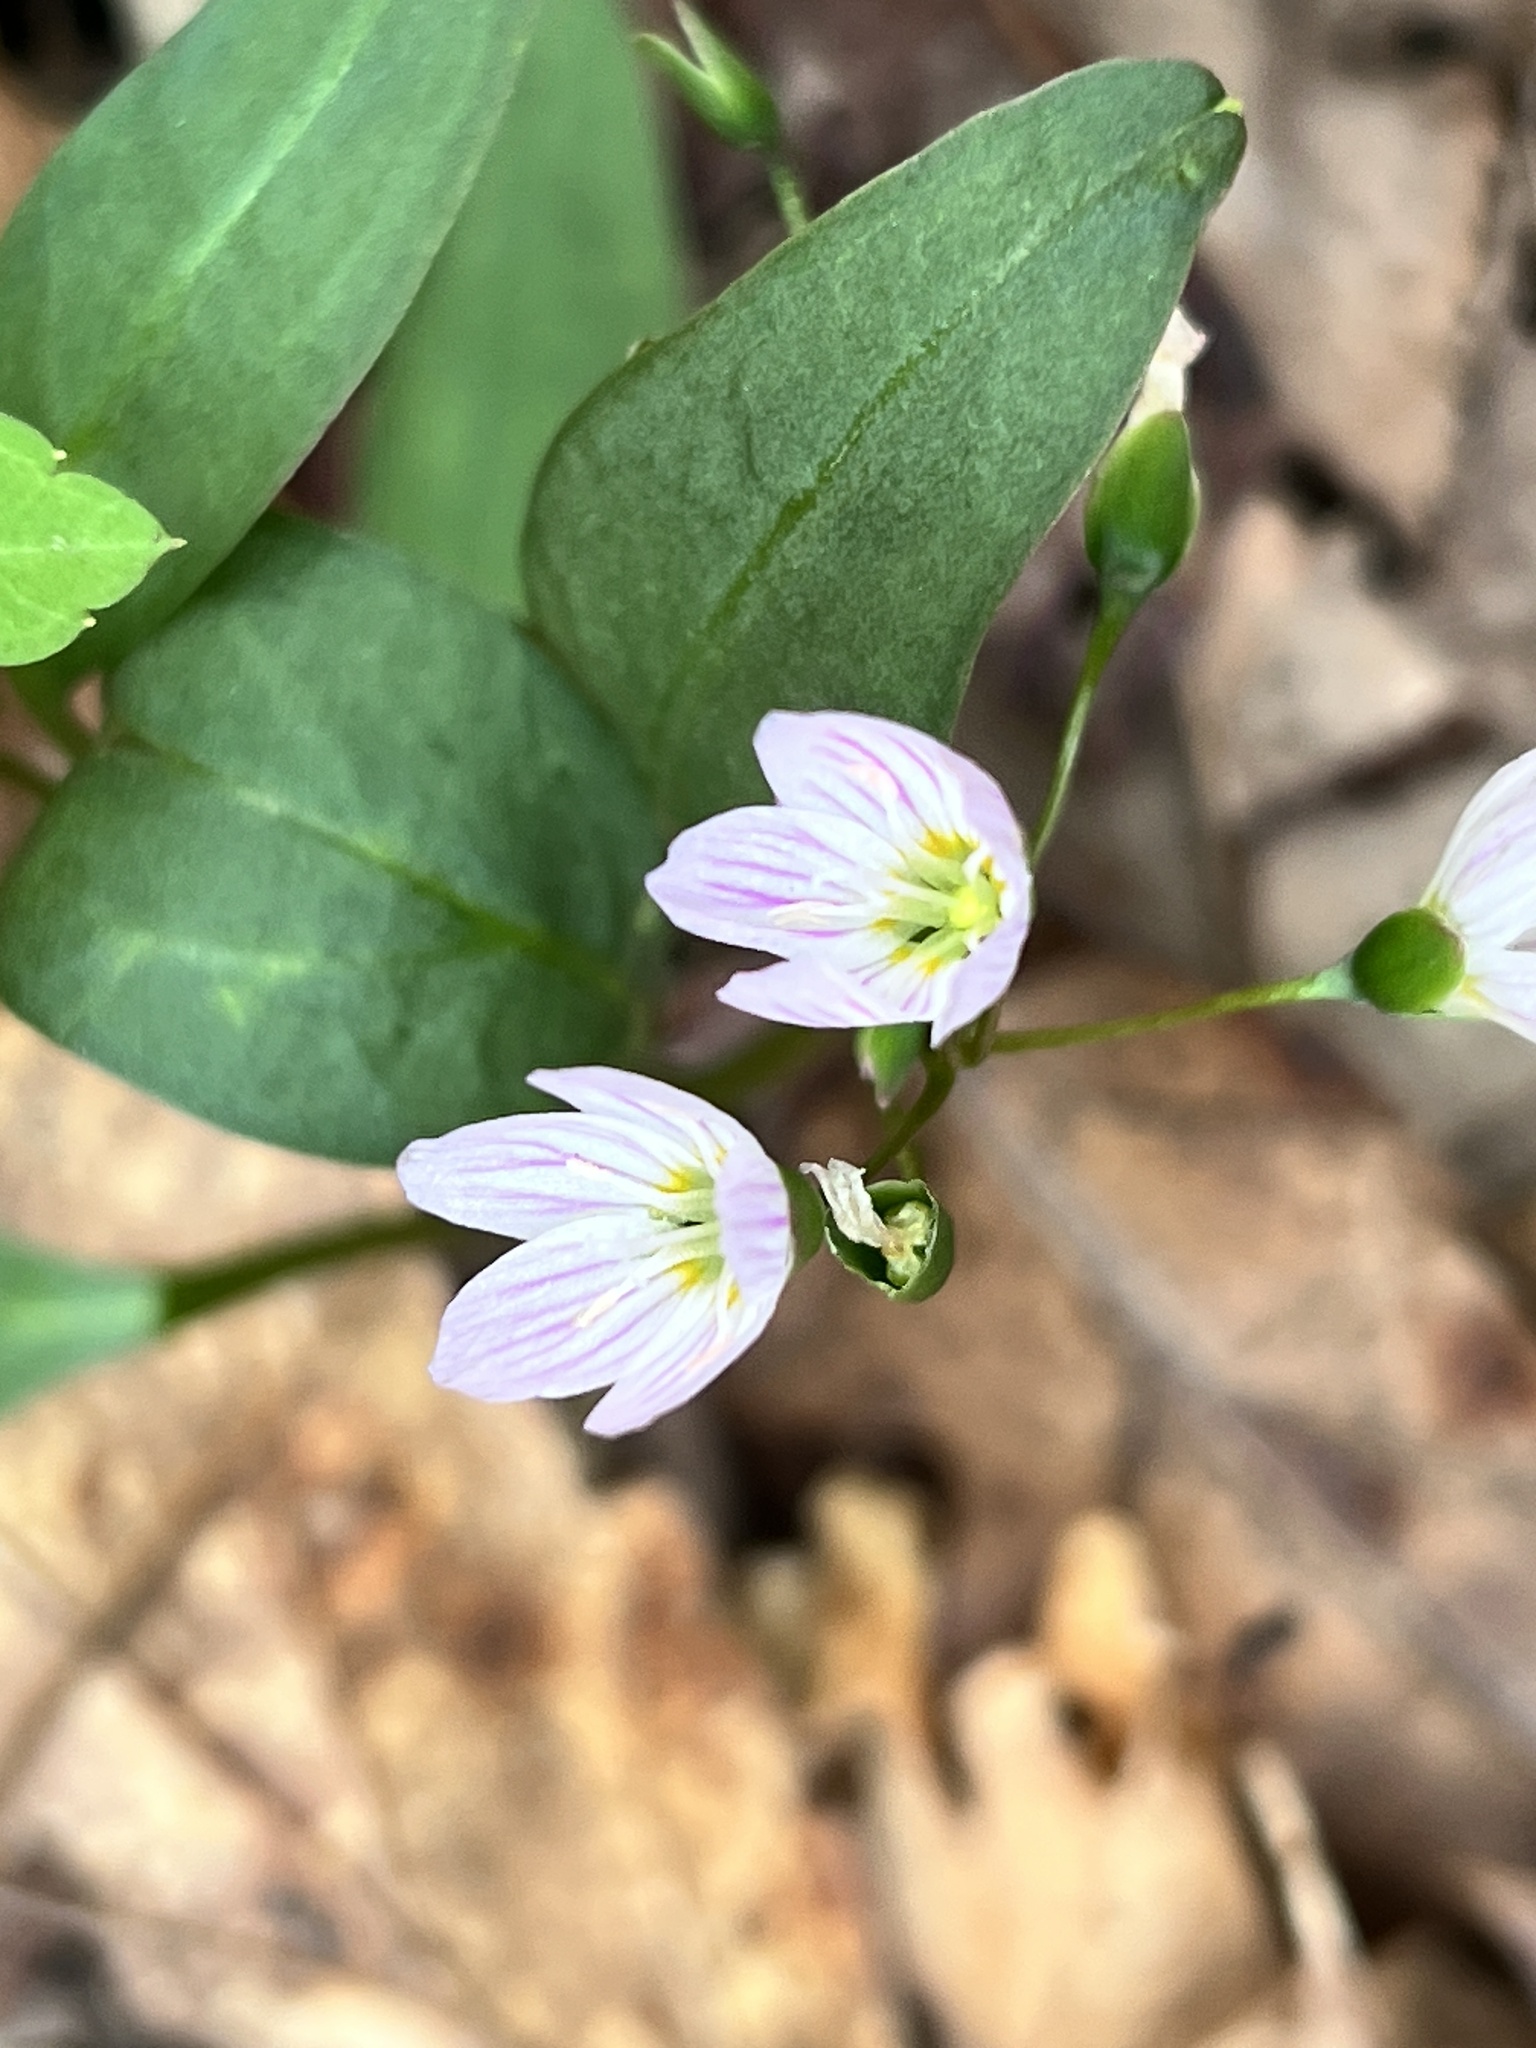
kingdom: Plantae
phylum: Tracheophyta
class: Magnoliopsida
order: Caryophyllales
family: Montiaceae
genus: Claytonia
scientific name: Claytonia caroliniana
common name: Carolina spring beauty
